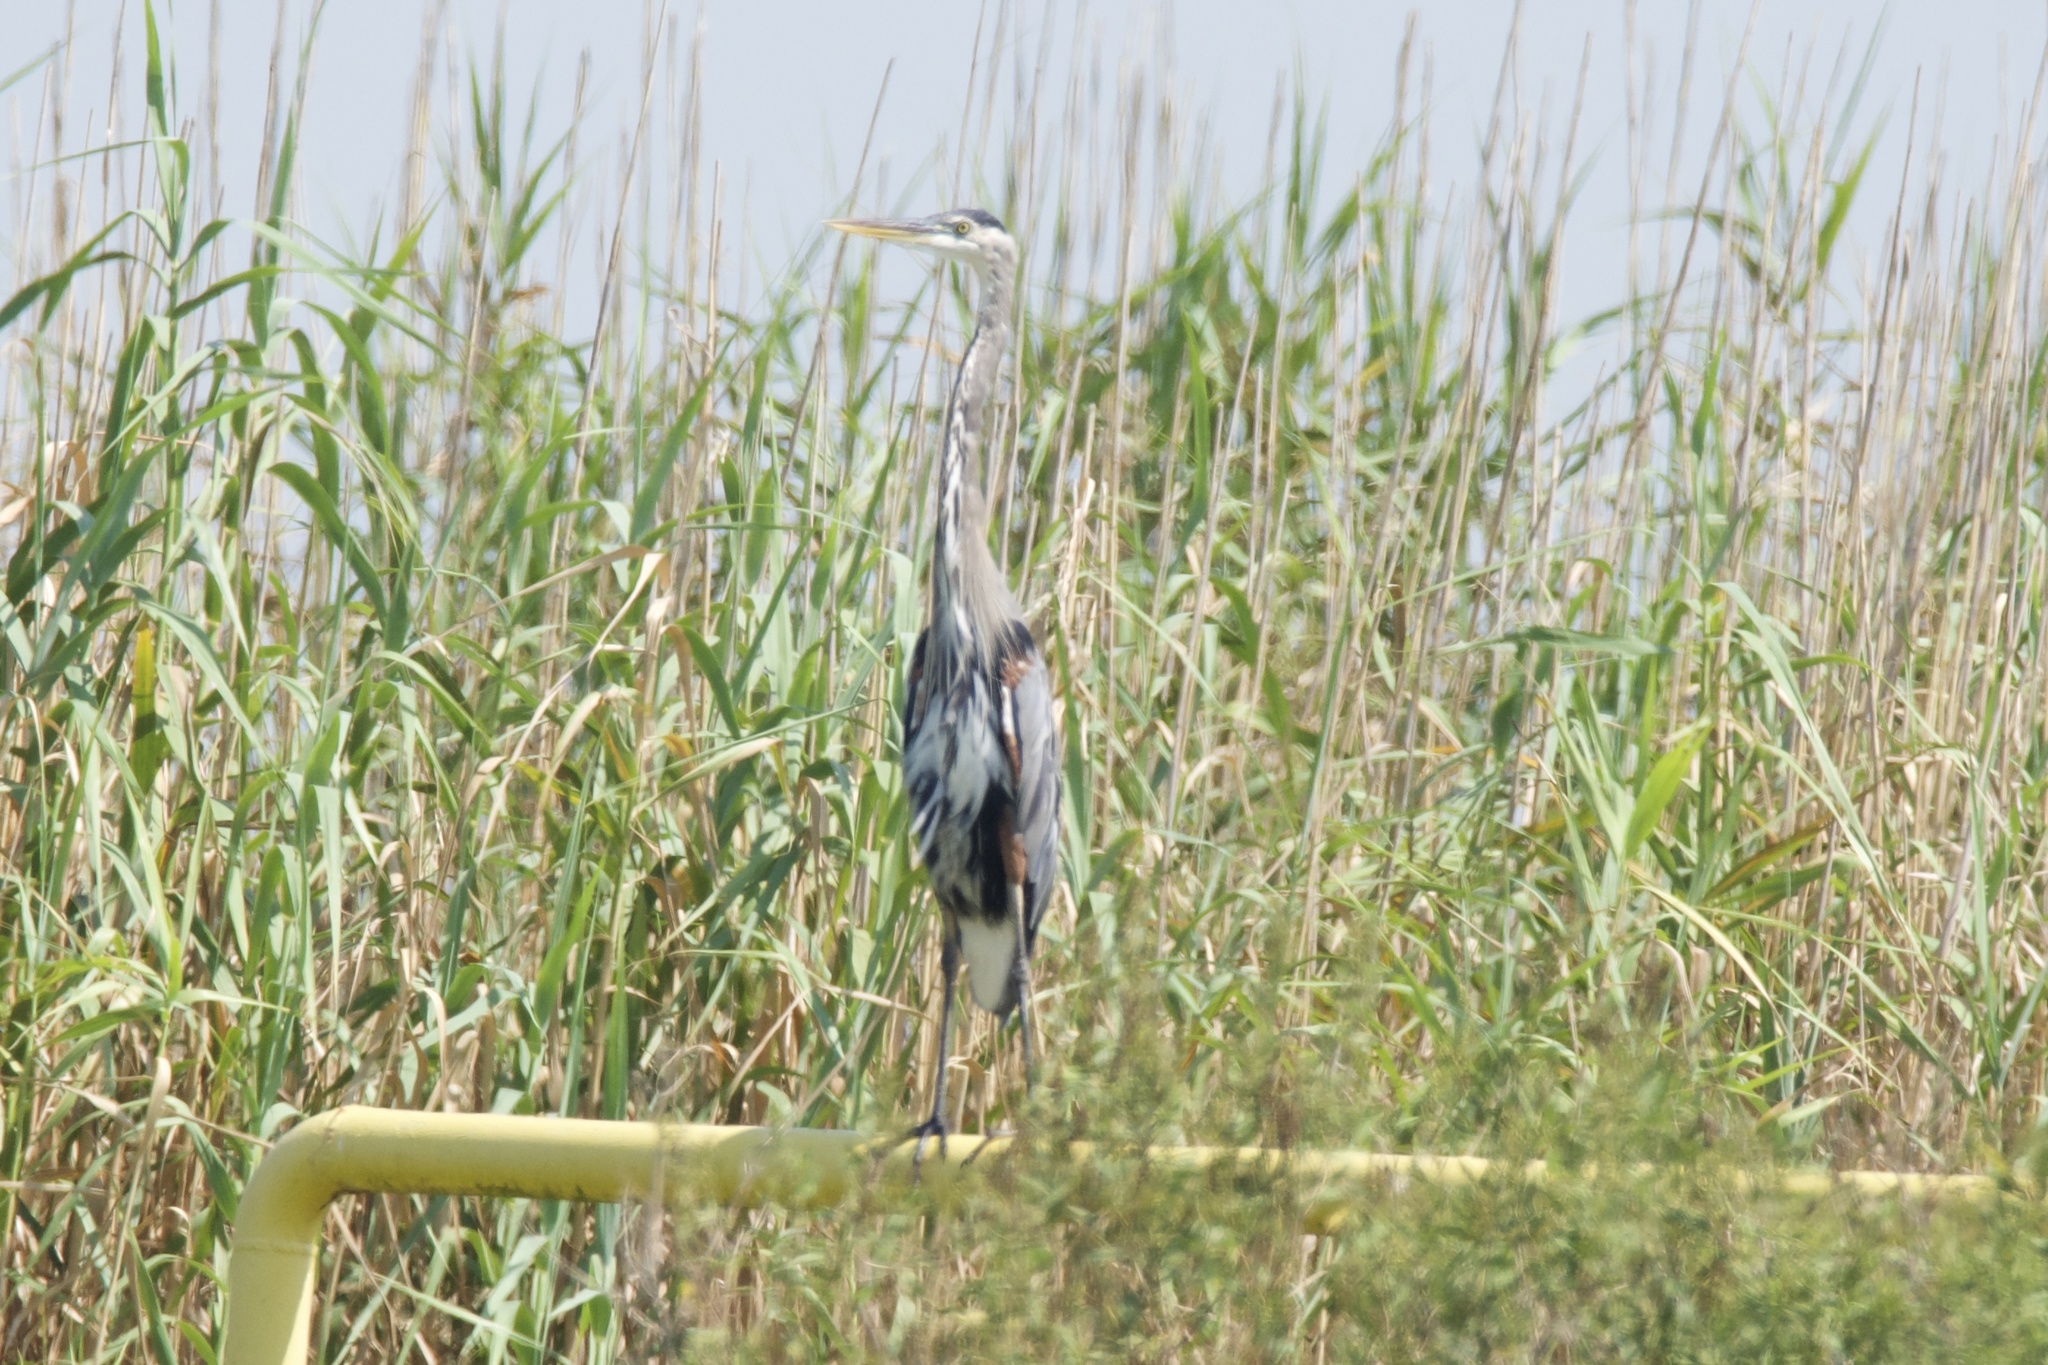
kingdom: Animalia
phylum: Chordata
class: Aves
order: Pelecaniformes
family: Ardeidae
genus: Ardea
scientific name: Ardea herodias
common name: Great blue heron
